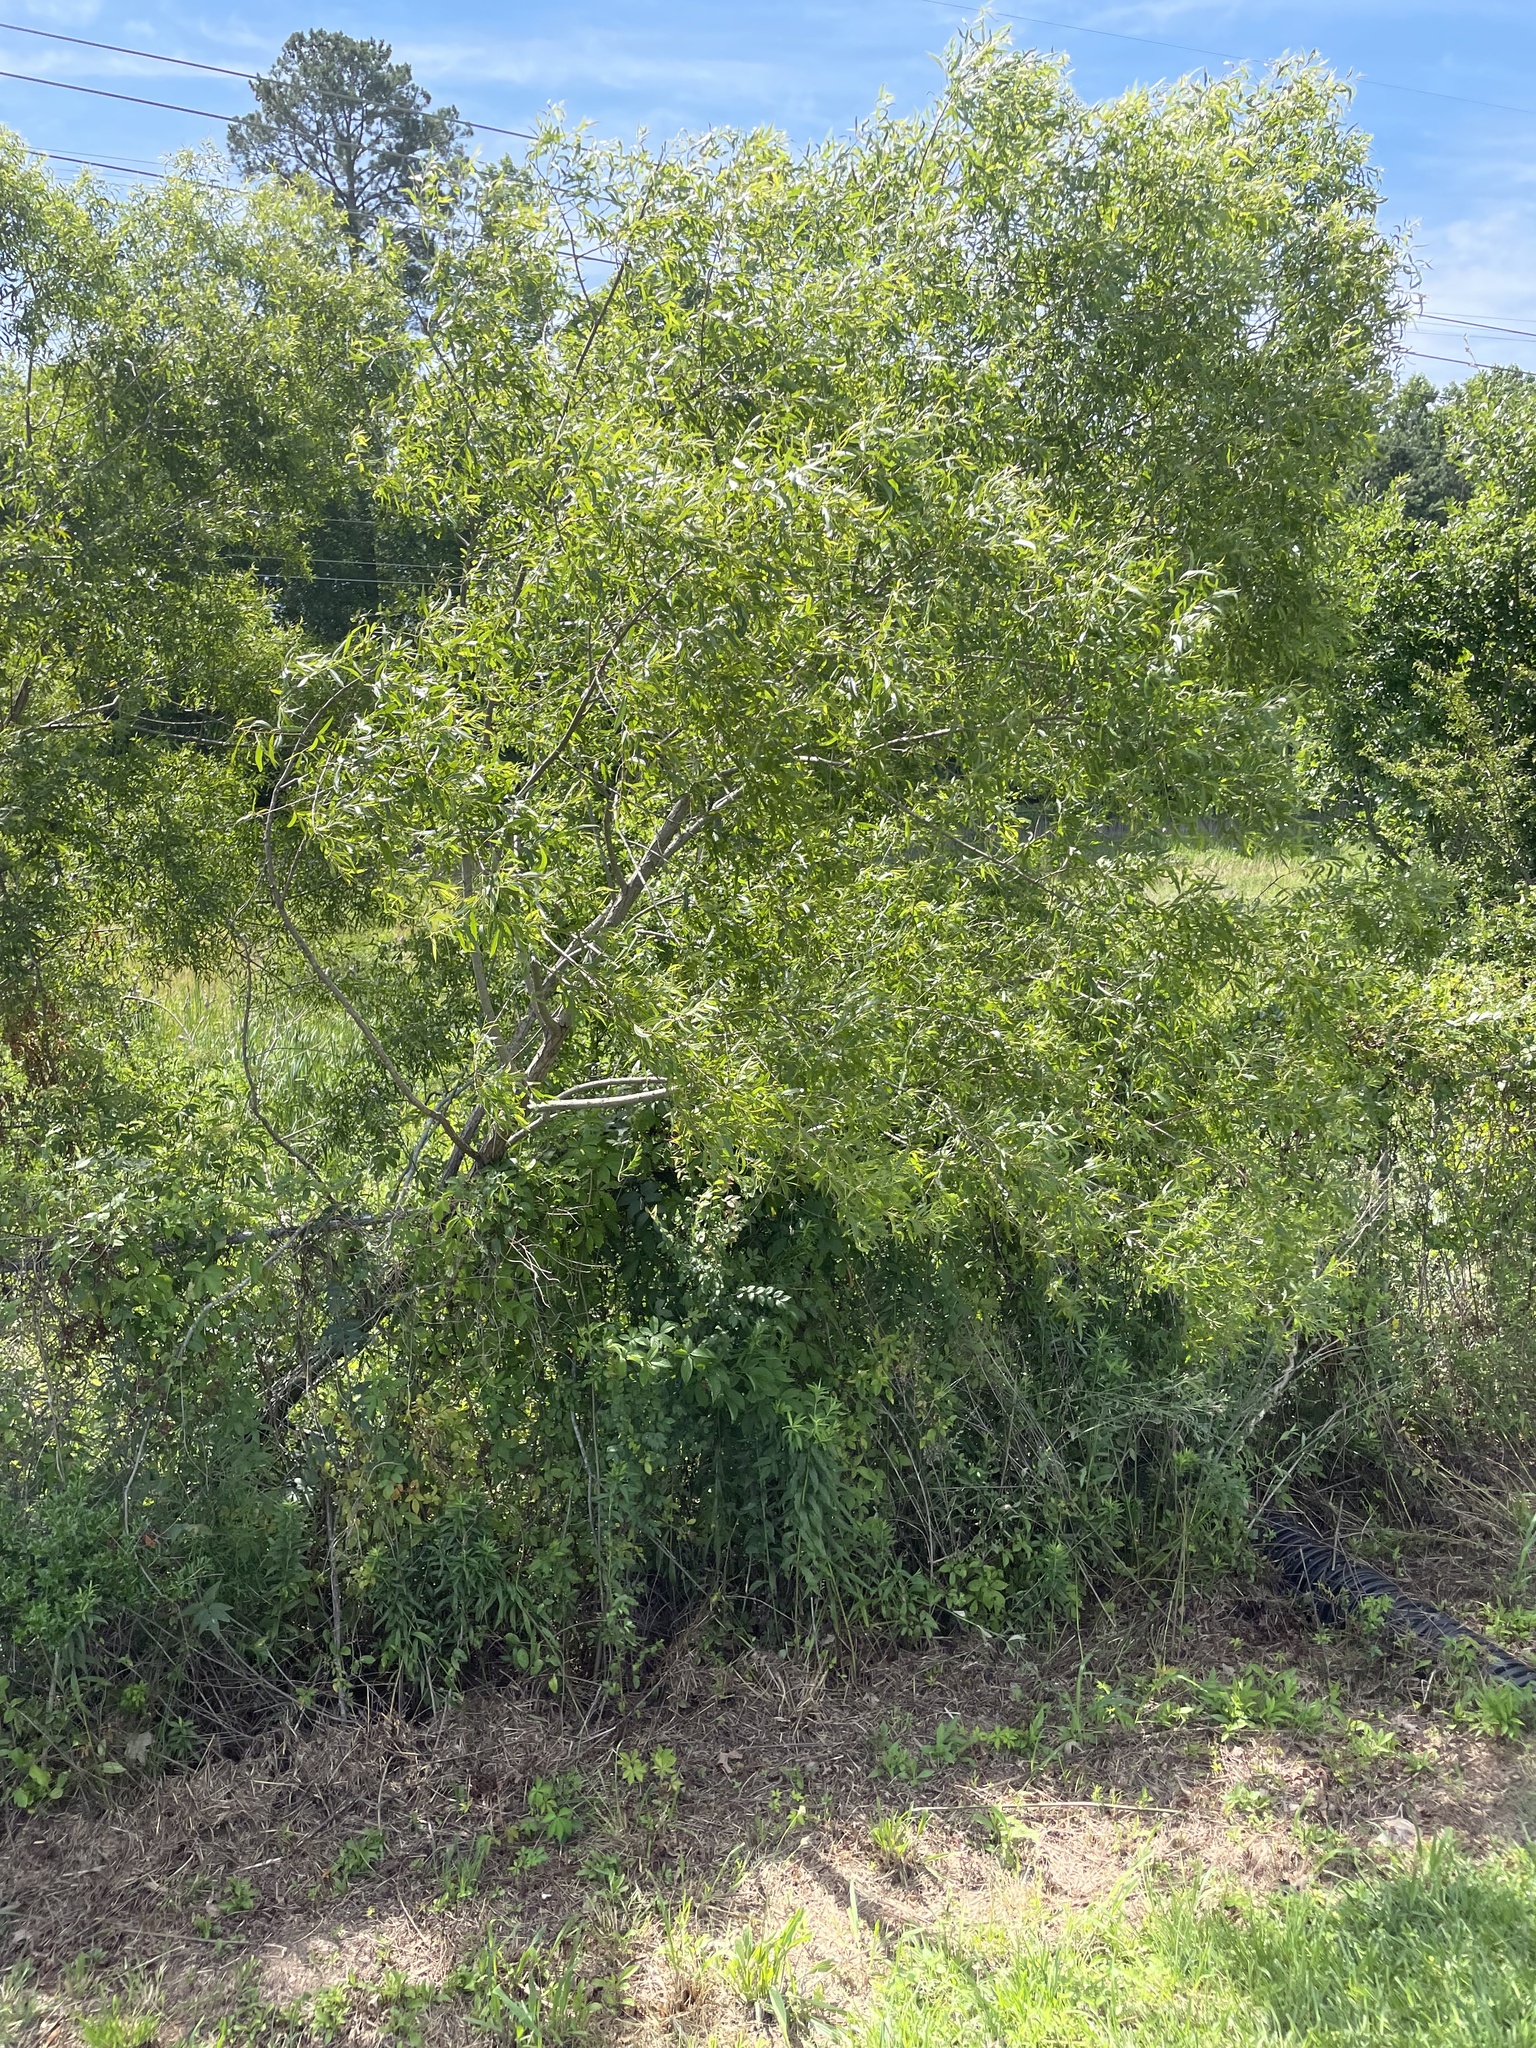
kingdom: Plantae
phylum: Tracheophyta
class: Magnoliopsida
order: Malpighiales
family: Salicaceae
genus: Salix
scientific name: Salix nigra
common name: Black willow
